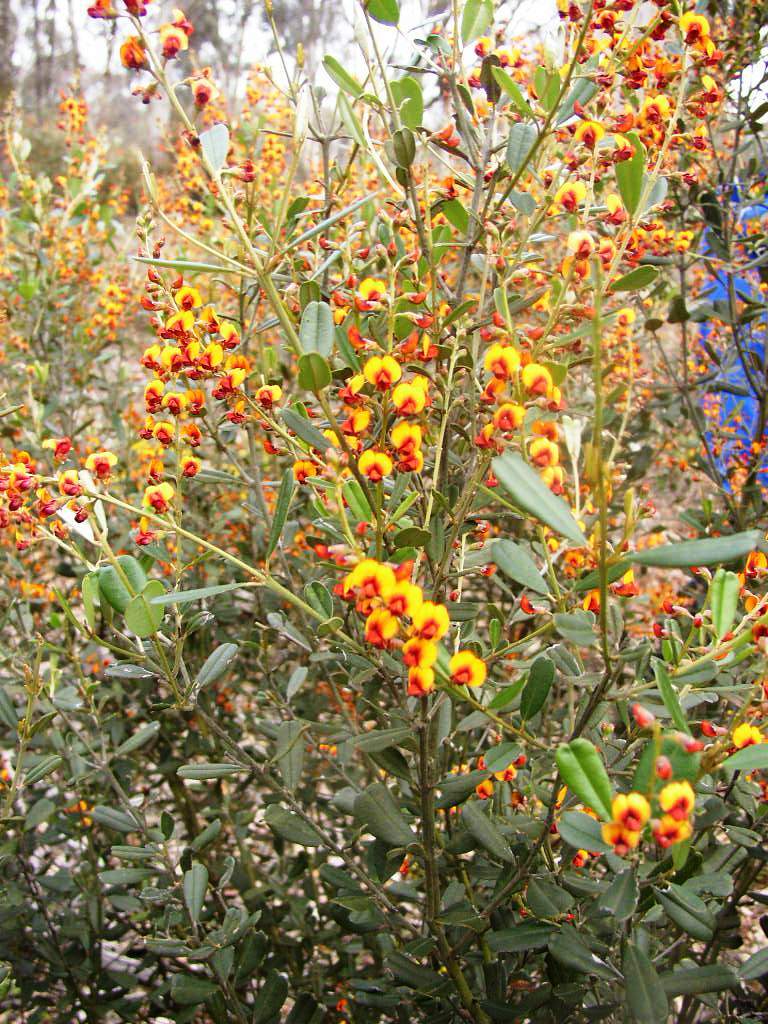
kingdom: Plantae
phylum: Tracheophyta
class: Magnoliopsida
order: Fabales
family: Fabaceae
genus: Gastrolobium
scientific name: Gastrolobium parviflorum
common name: Berry poisonbush
